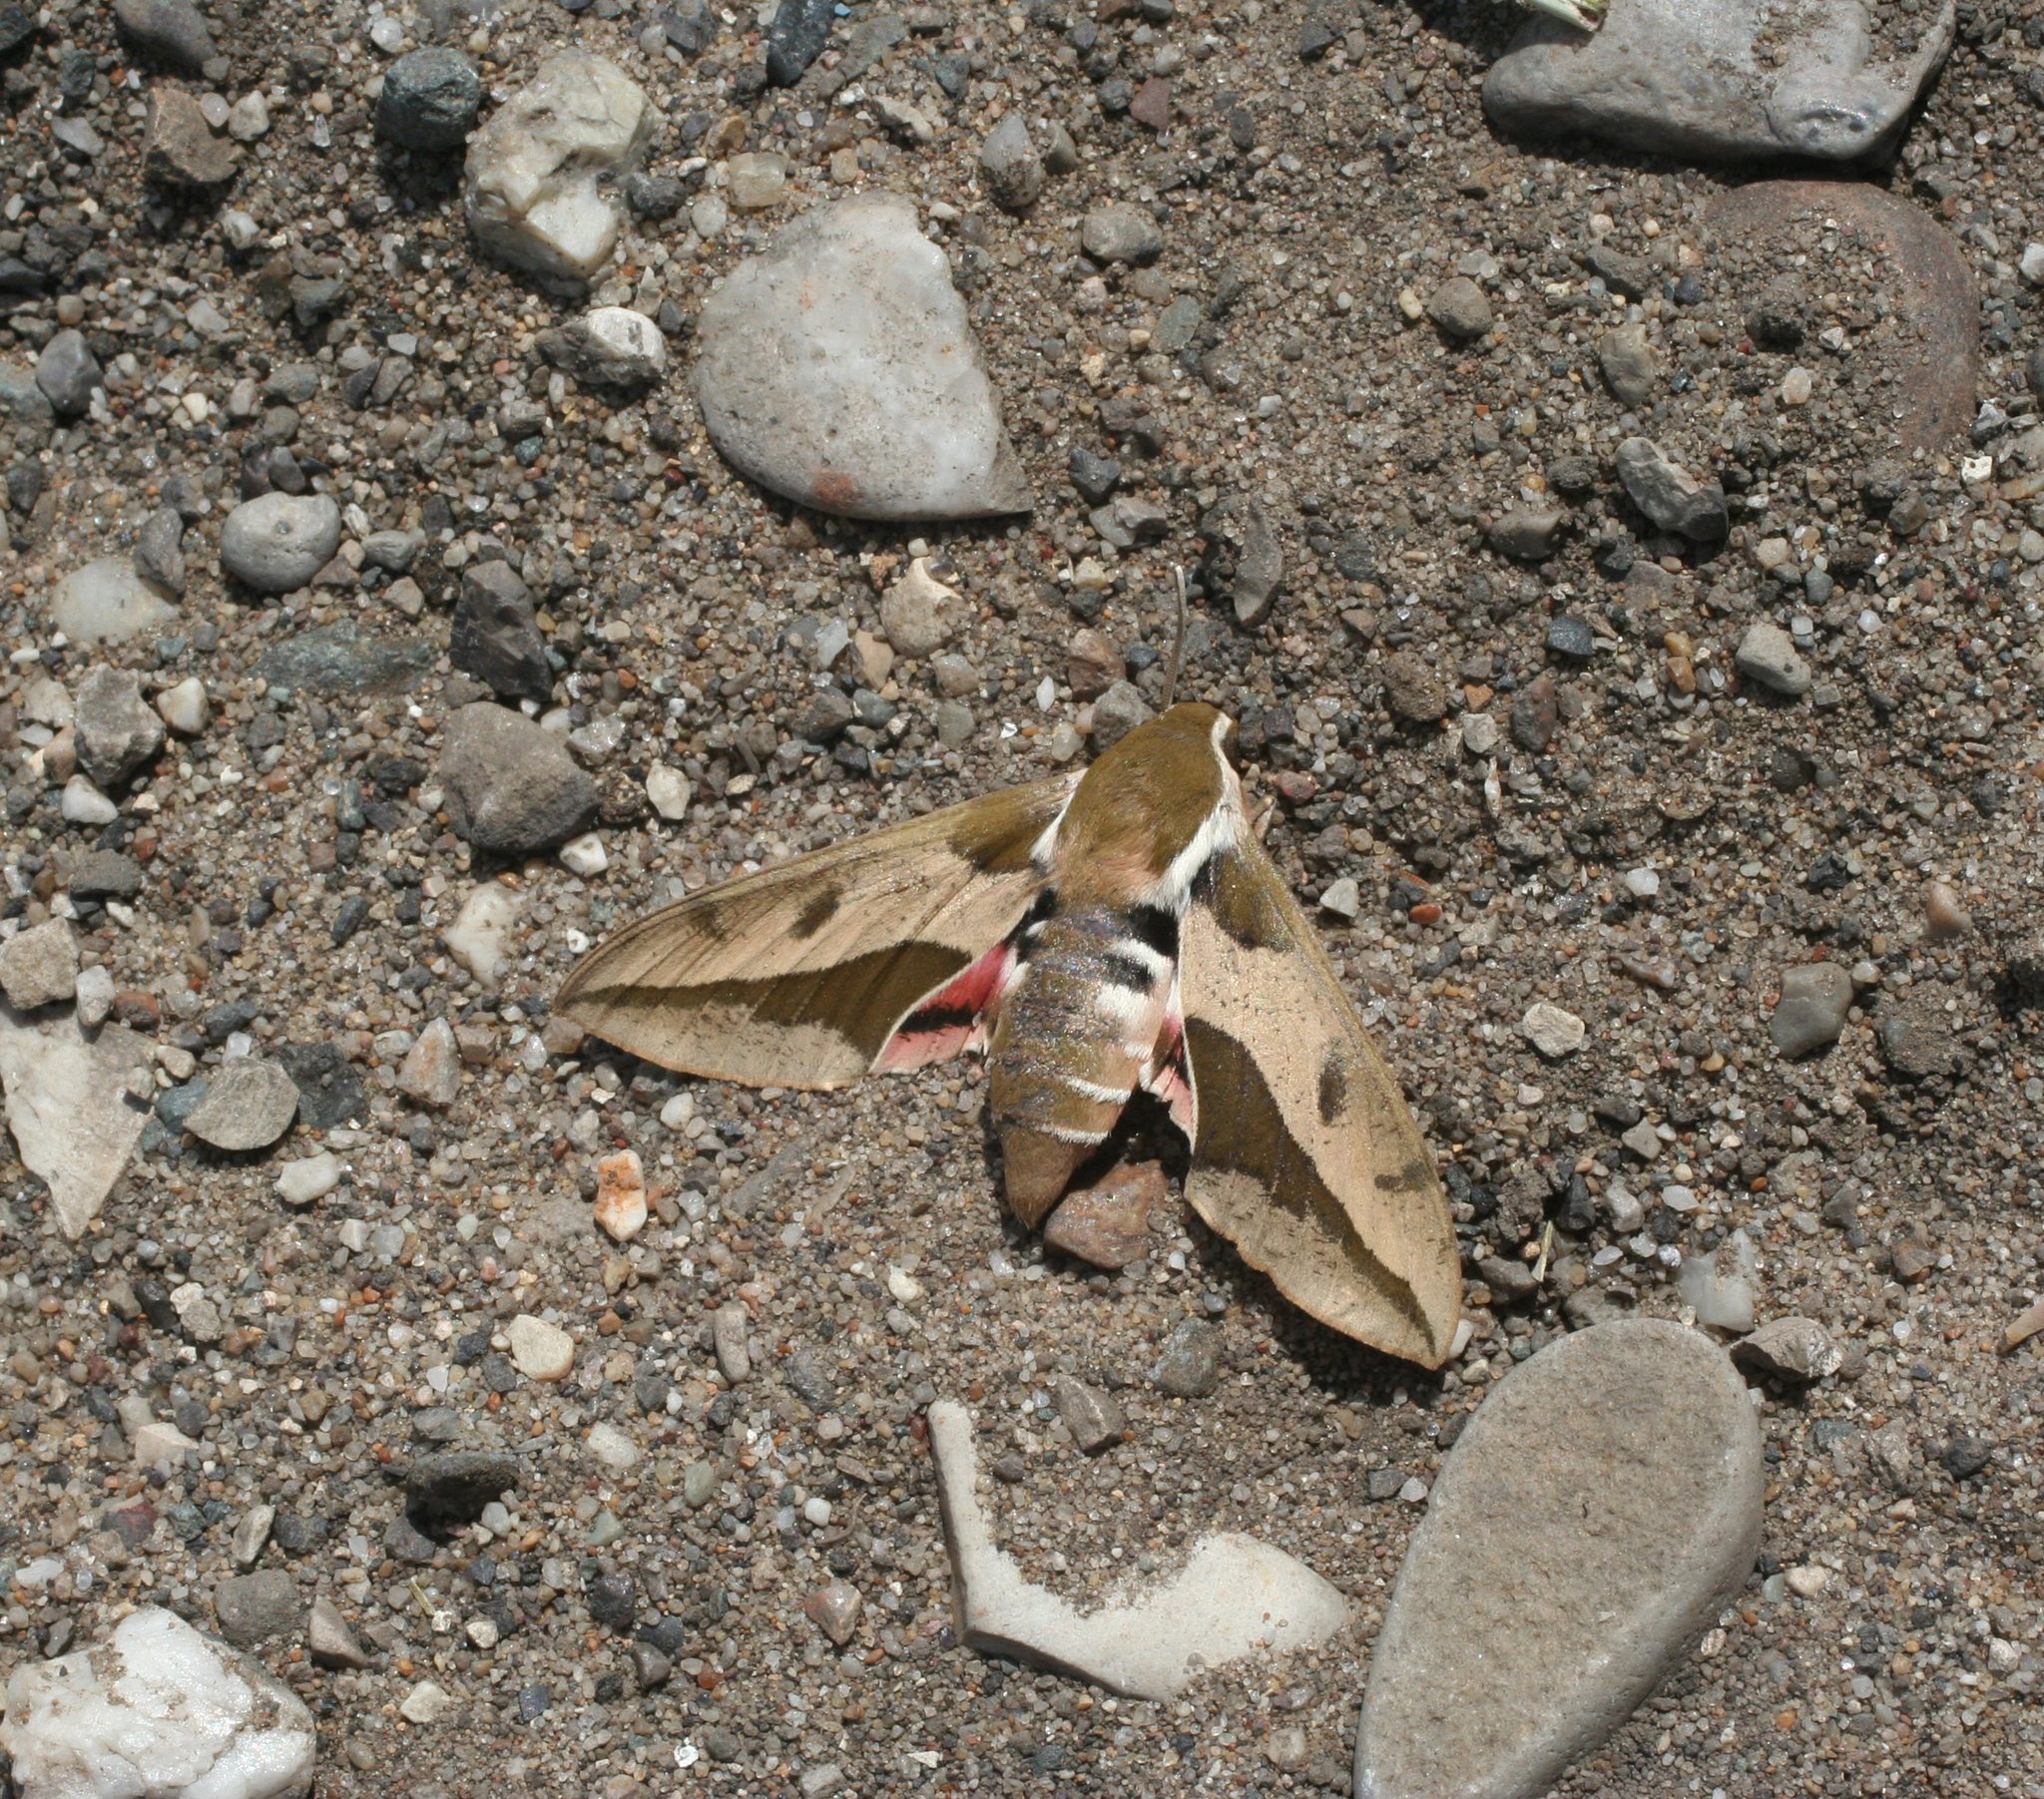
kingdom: Animalia
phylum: Arthropoda
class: Insecta
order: Lepidoptera
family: Sphingidae
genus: Hyles
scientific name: Hyles euphorbiae
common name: Spurge hawk-moth
